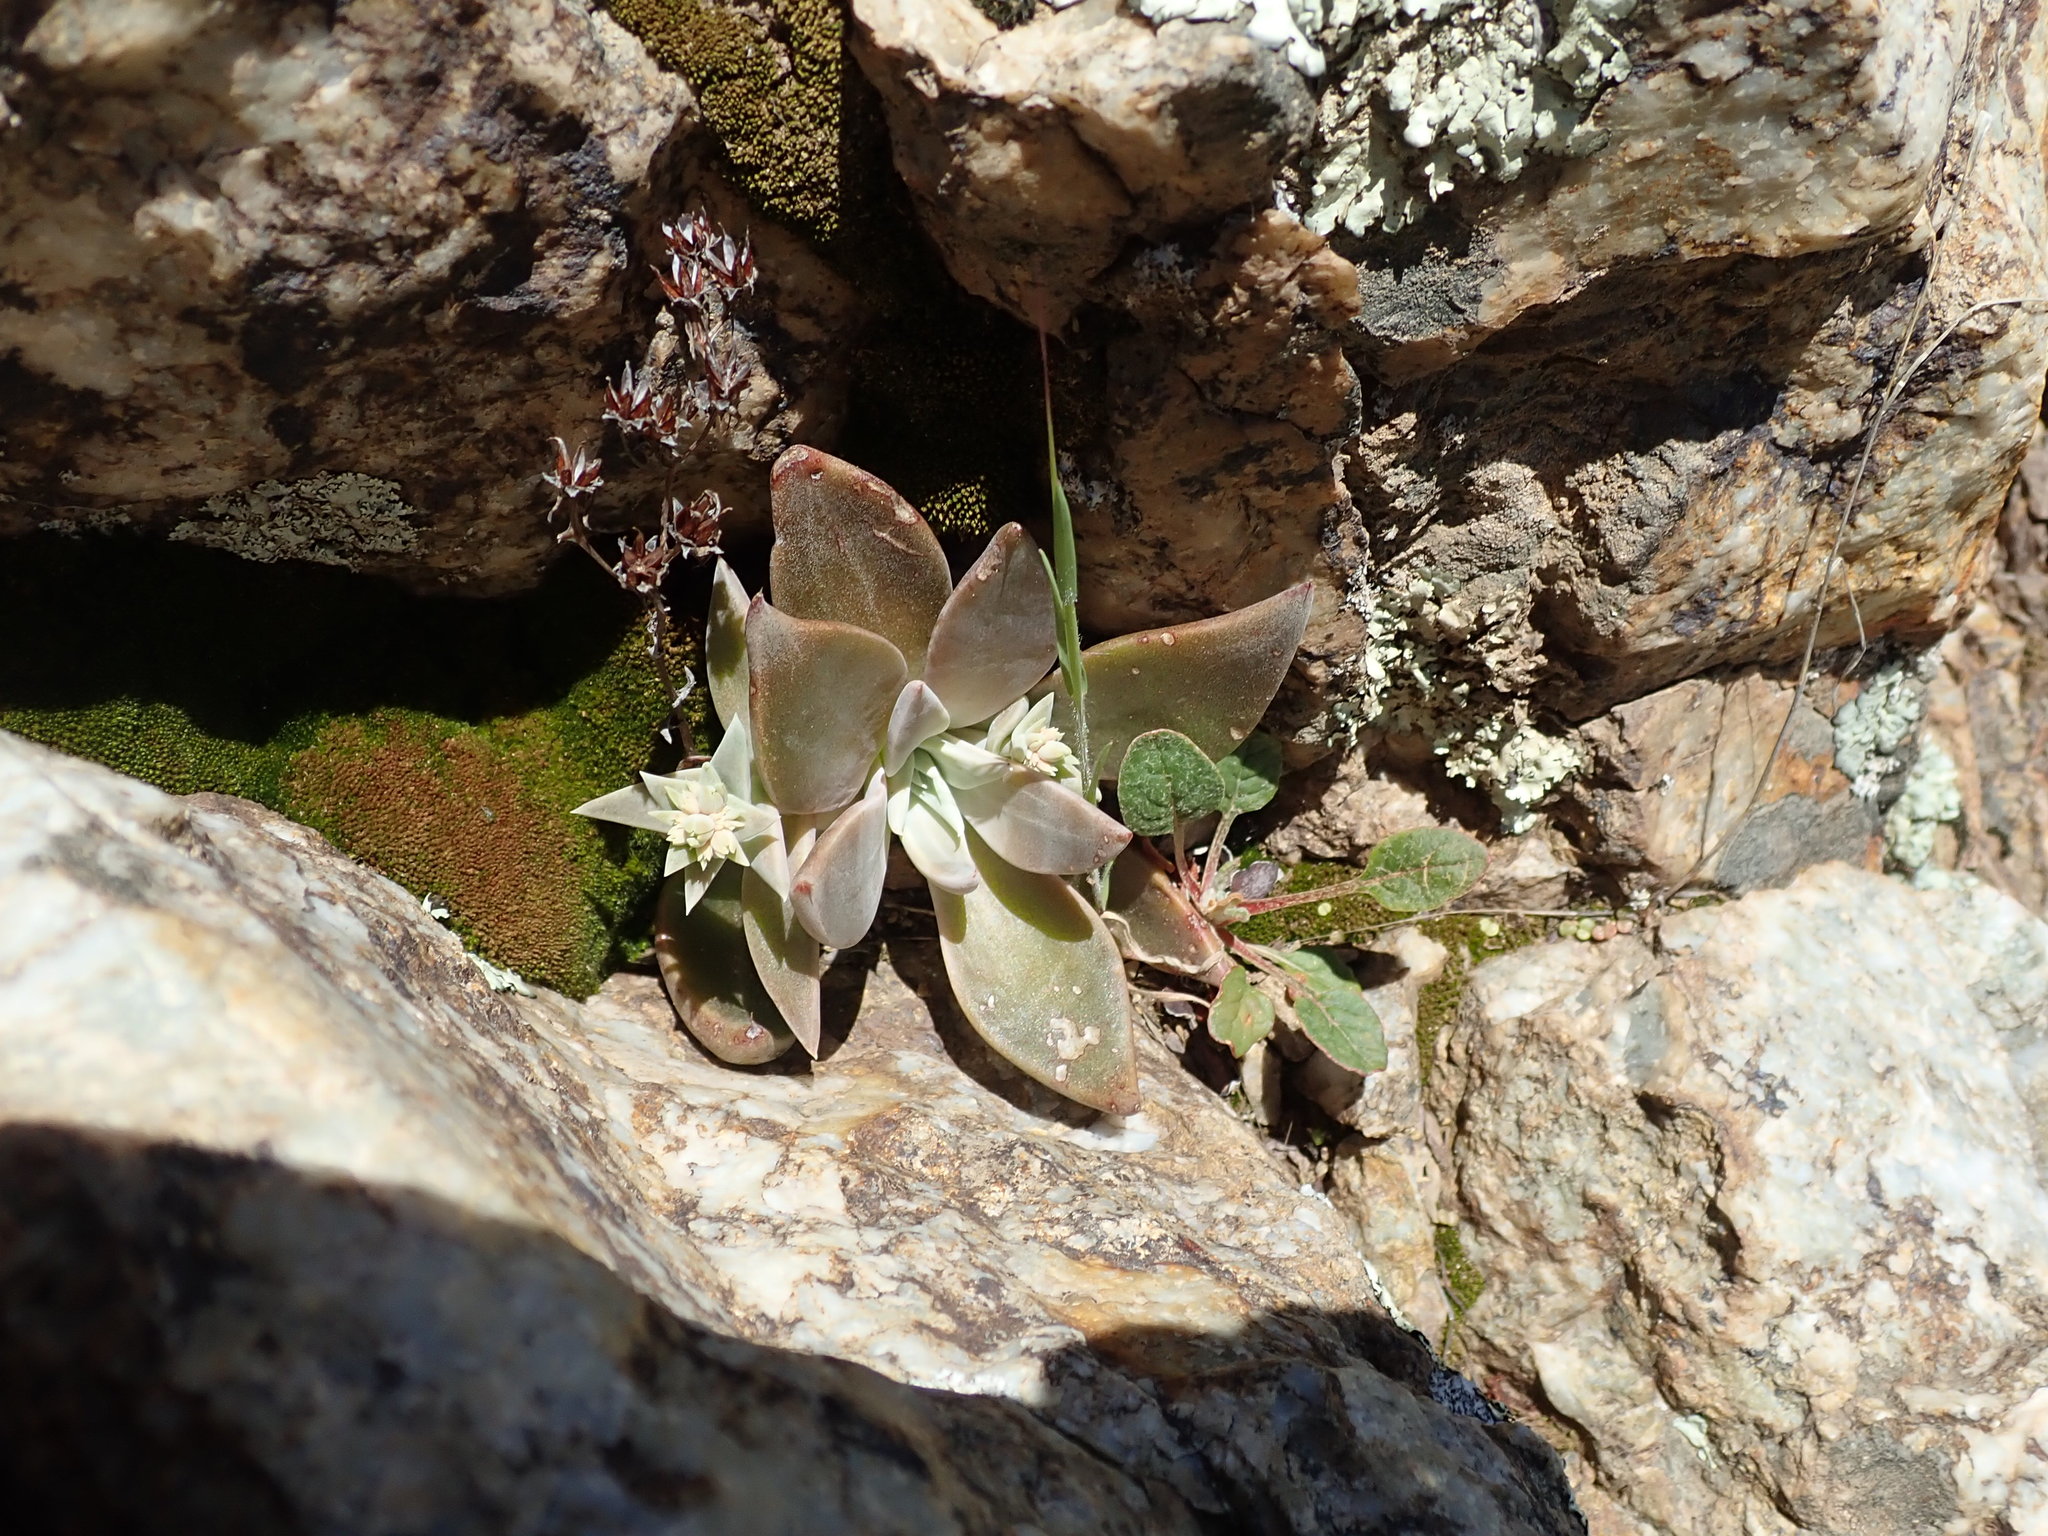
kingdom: Plantae
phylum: Tracheophyta
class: Magnoliopsida
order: Saxifragales
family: Crassulaceae
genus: Dudleya
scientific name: Dudleya cymosa
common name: Canyon dudleya
